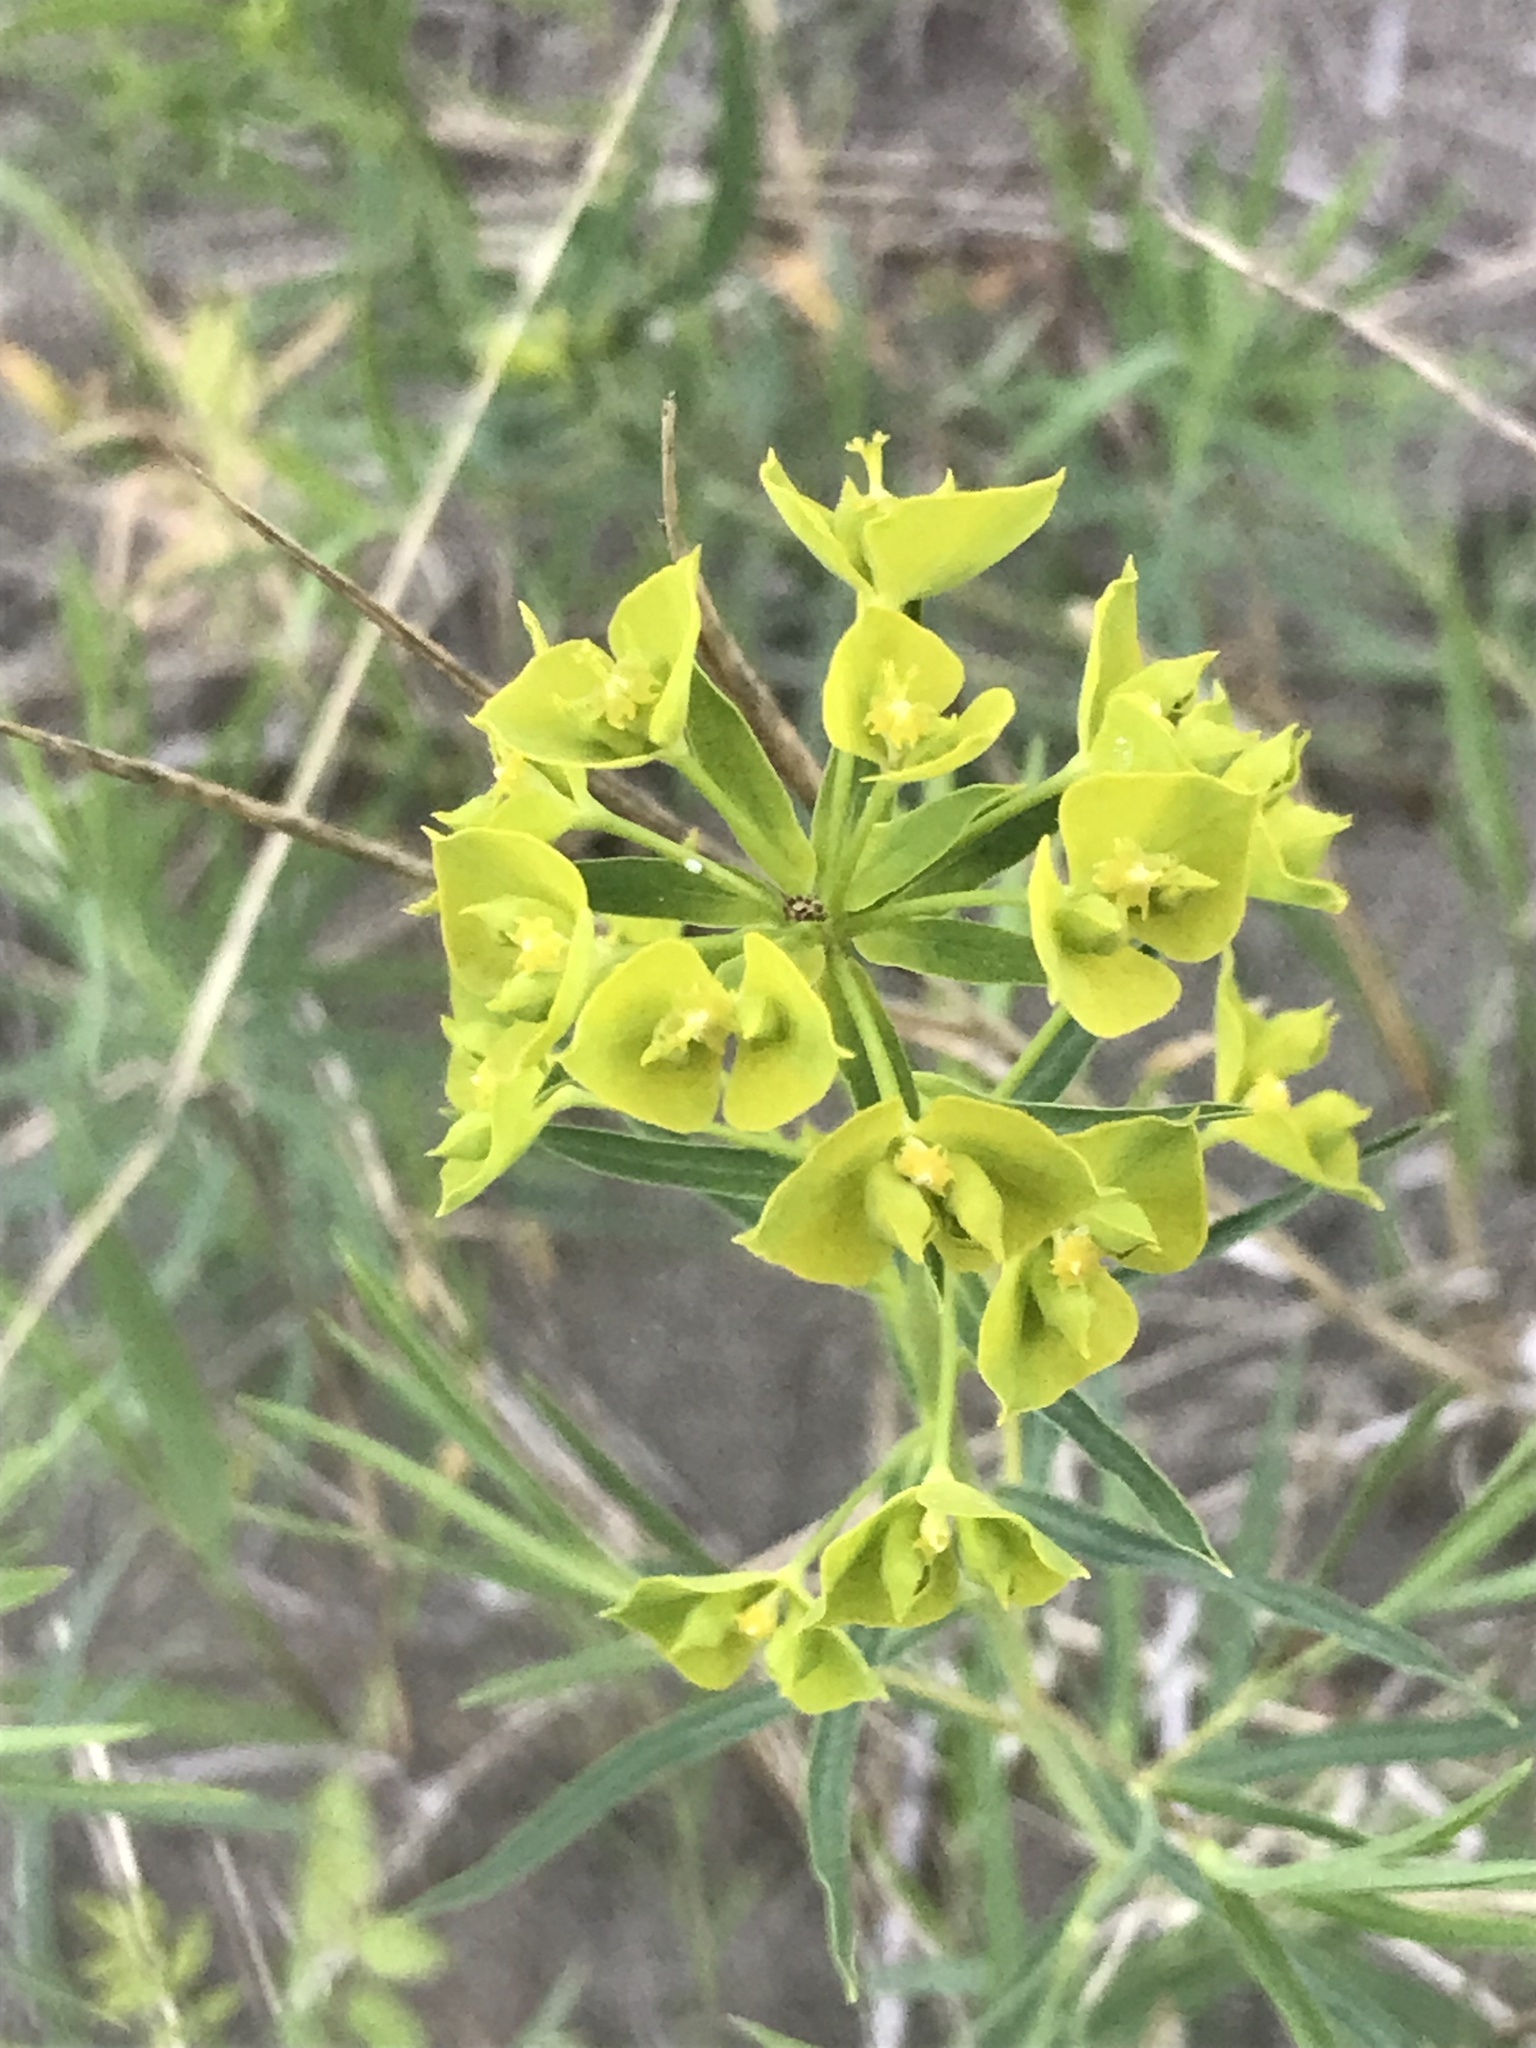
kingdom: Plantae
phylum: Tracheophyta
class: Magnoliopsida
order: Malpighiales
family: Euphorbiaceae
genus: Euphorbia
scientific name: Euphorbia virgata
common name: Leafy spurge
